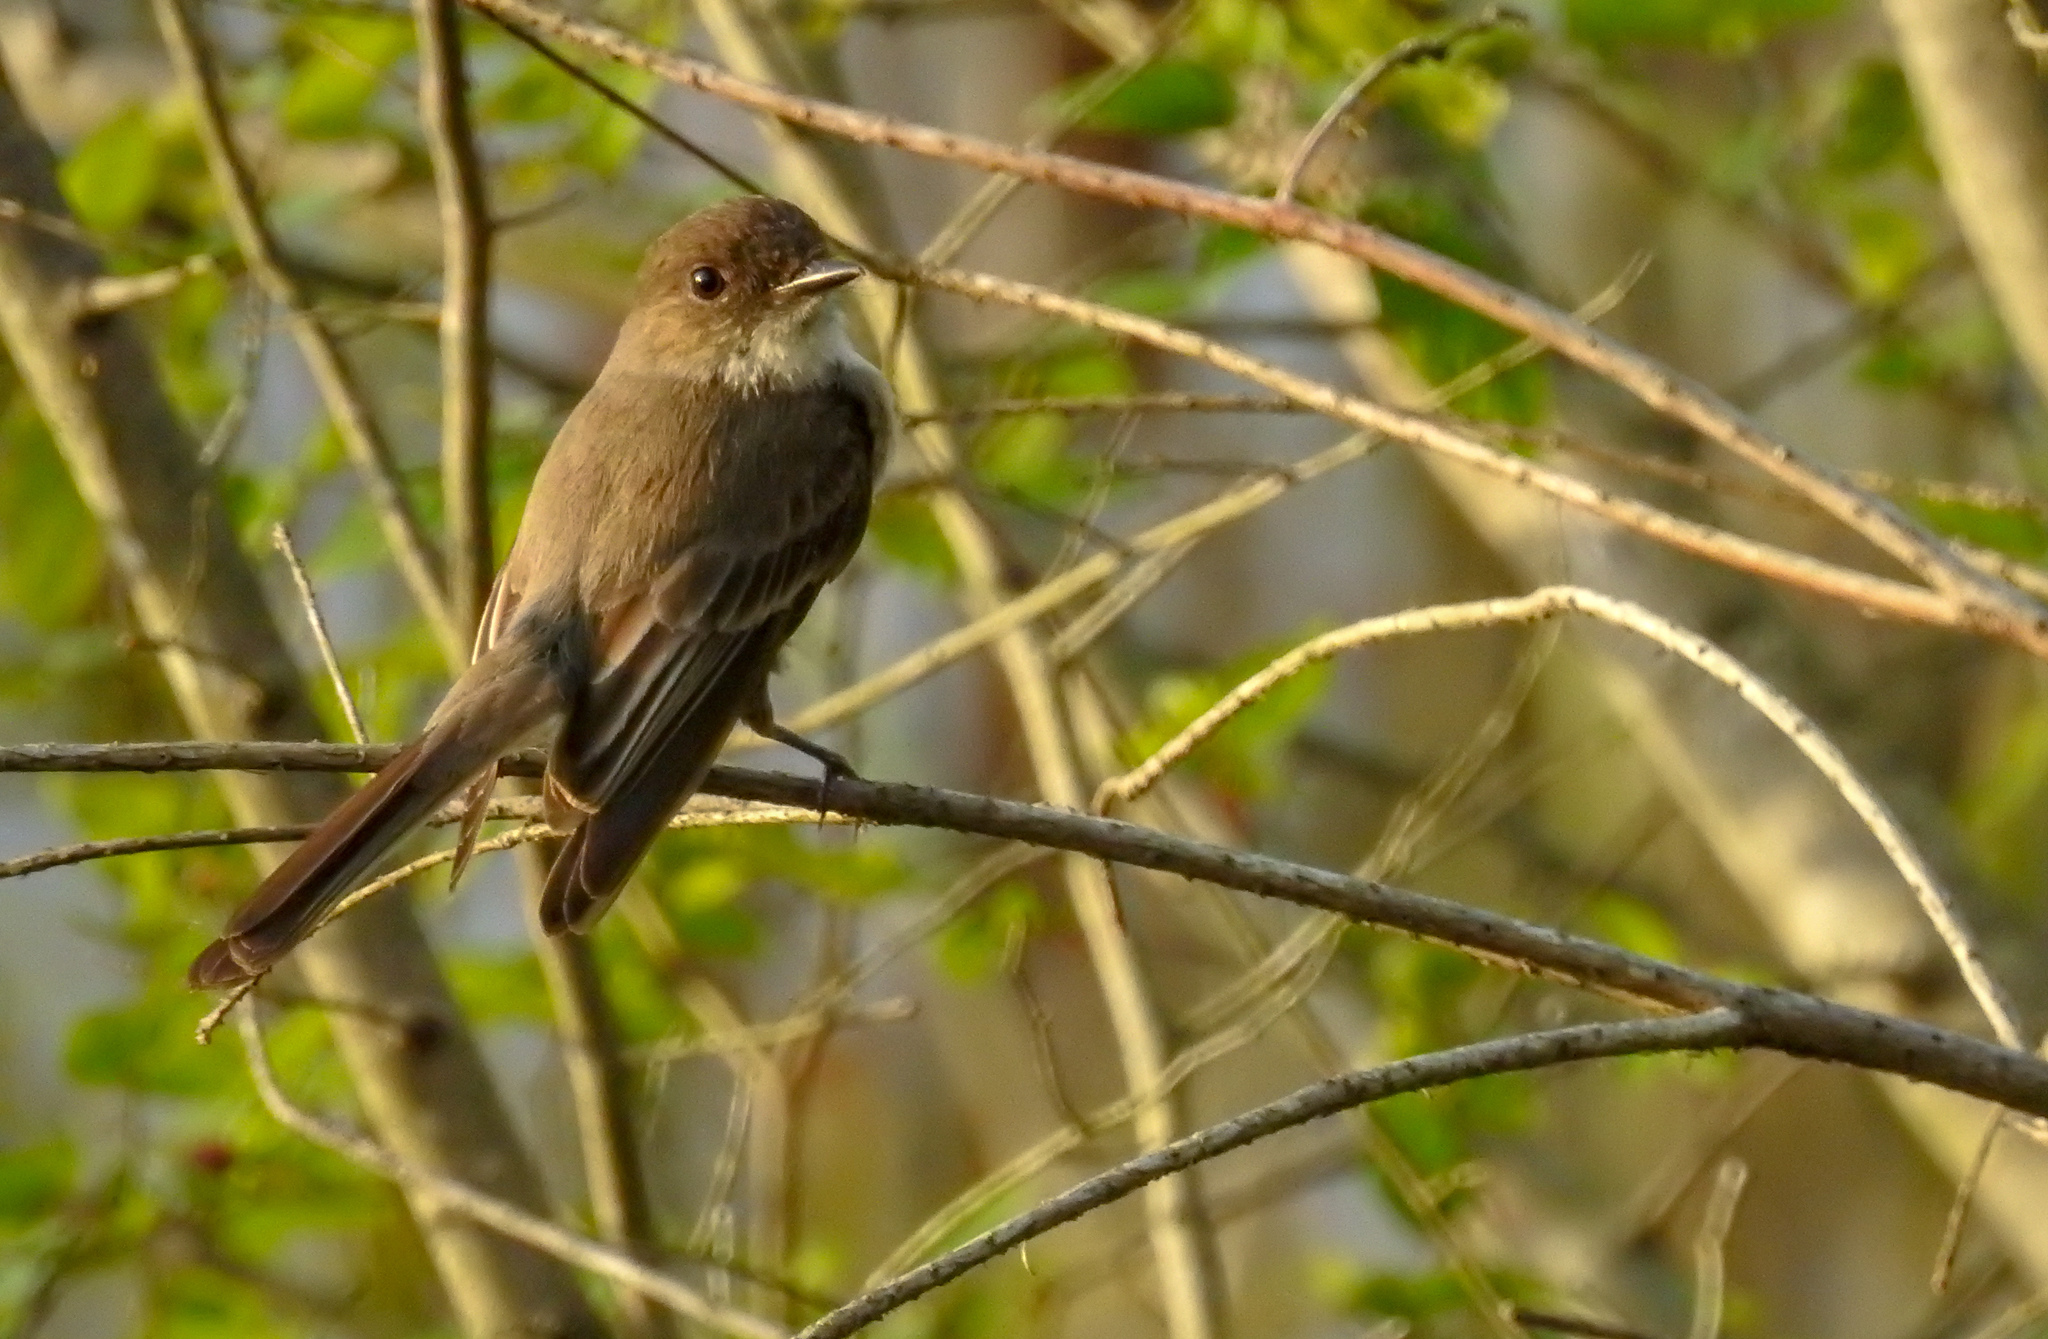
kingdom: Animalia
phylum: Chordata
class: Aves
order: Passeriformes
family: Tyrannidae
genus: Sayornis
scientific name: Sayornis phoebe
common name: Eastern phoebe
